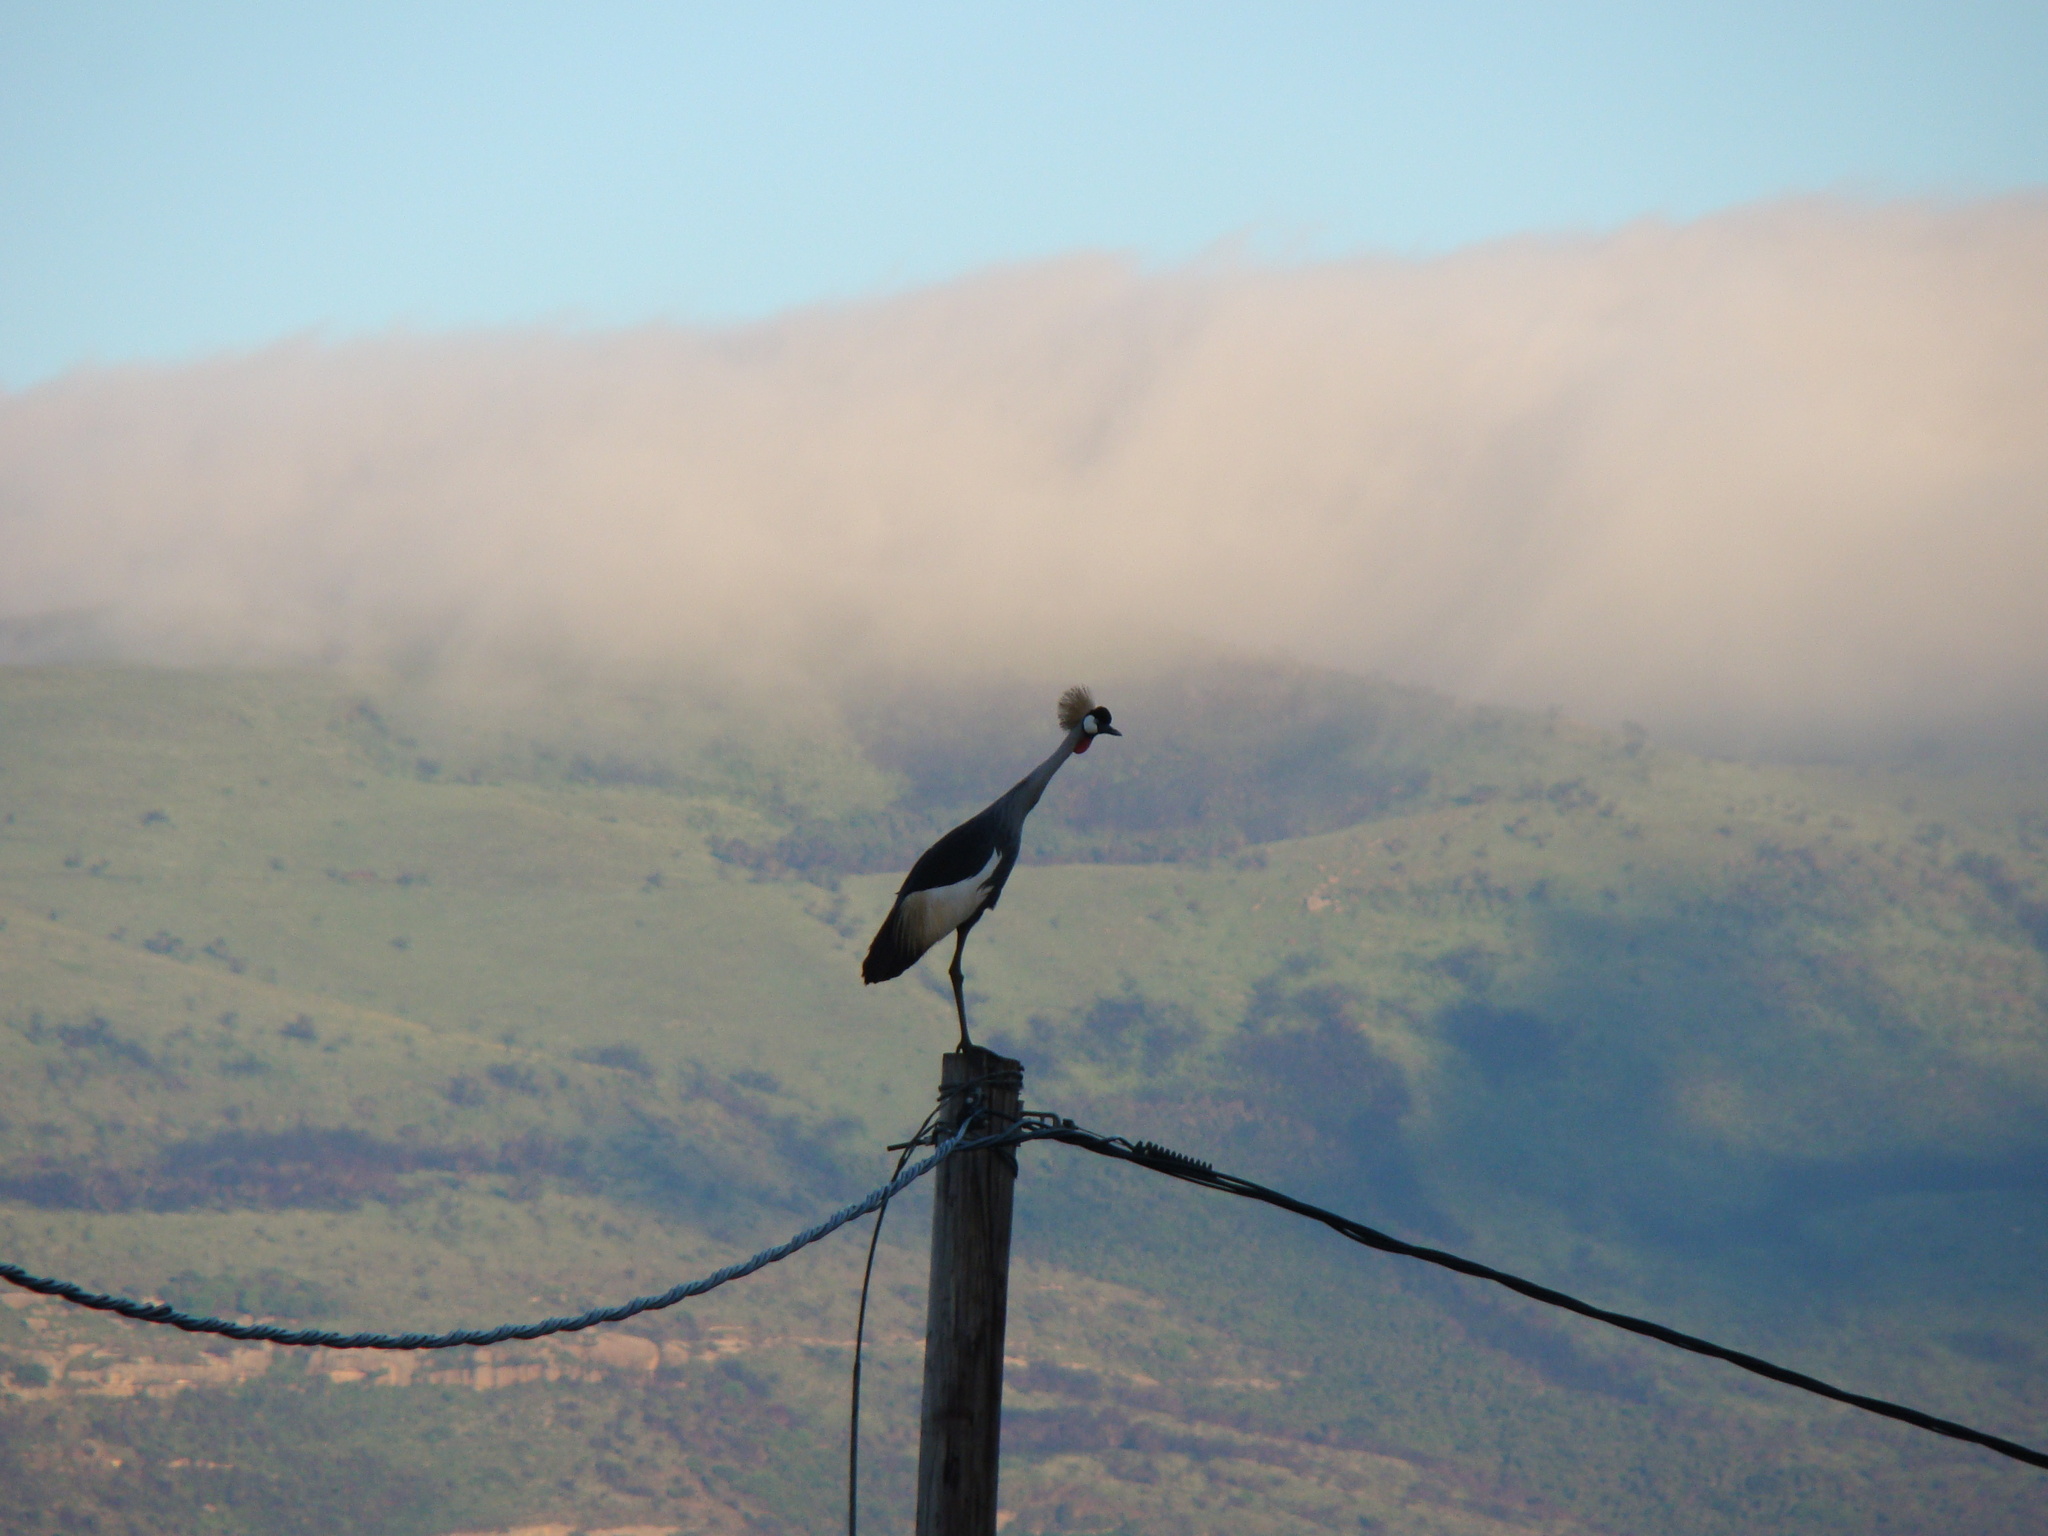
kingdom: Animalia
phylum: Chordata
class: Aves
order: Gruiformes
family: Gruidae
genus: Balearica
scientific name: Balearica regulorum
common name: Grey crowned crane
